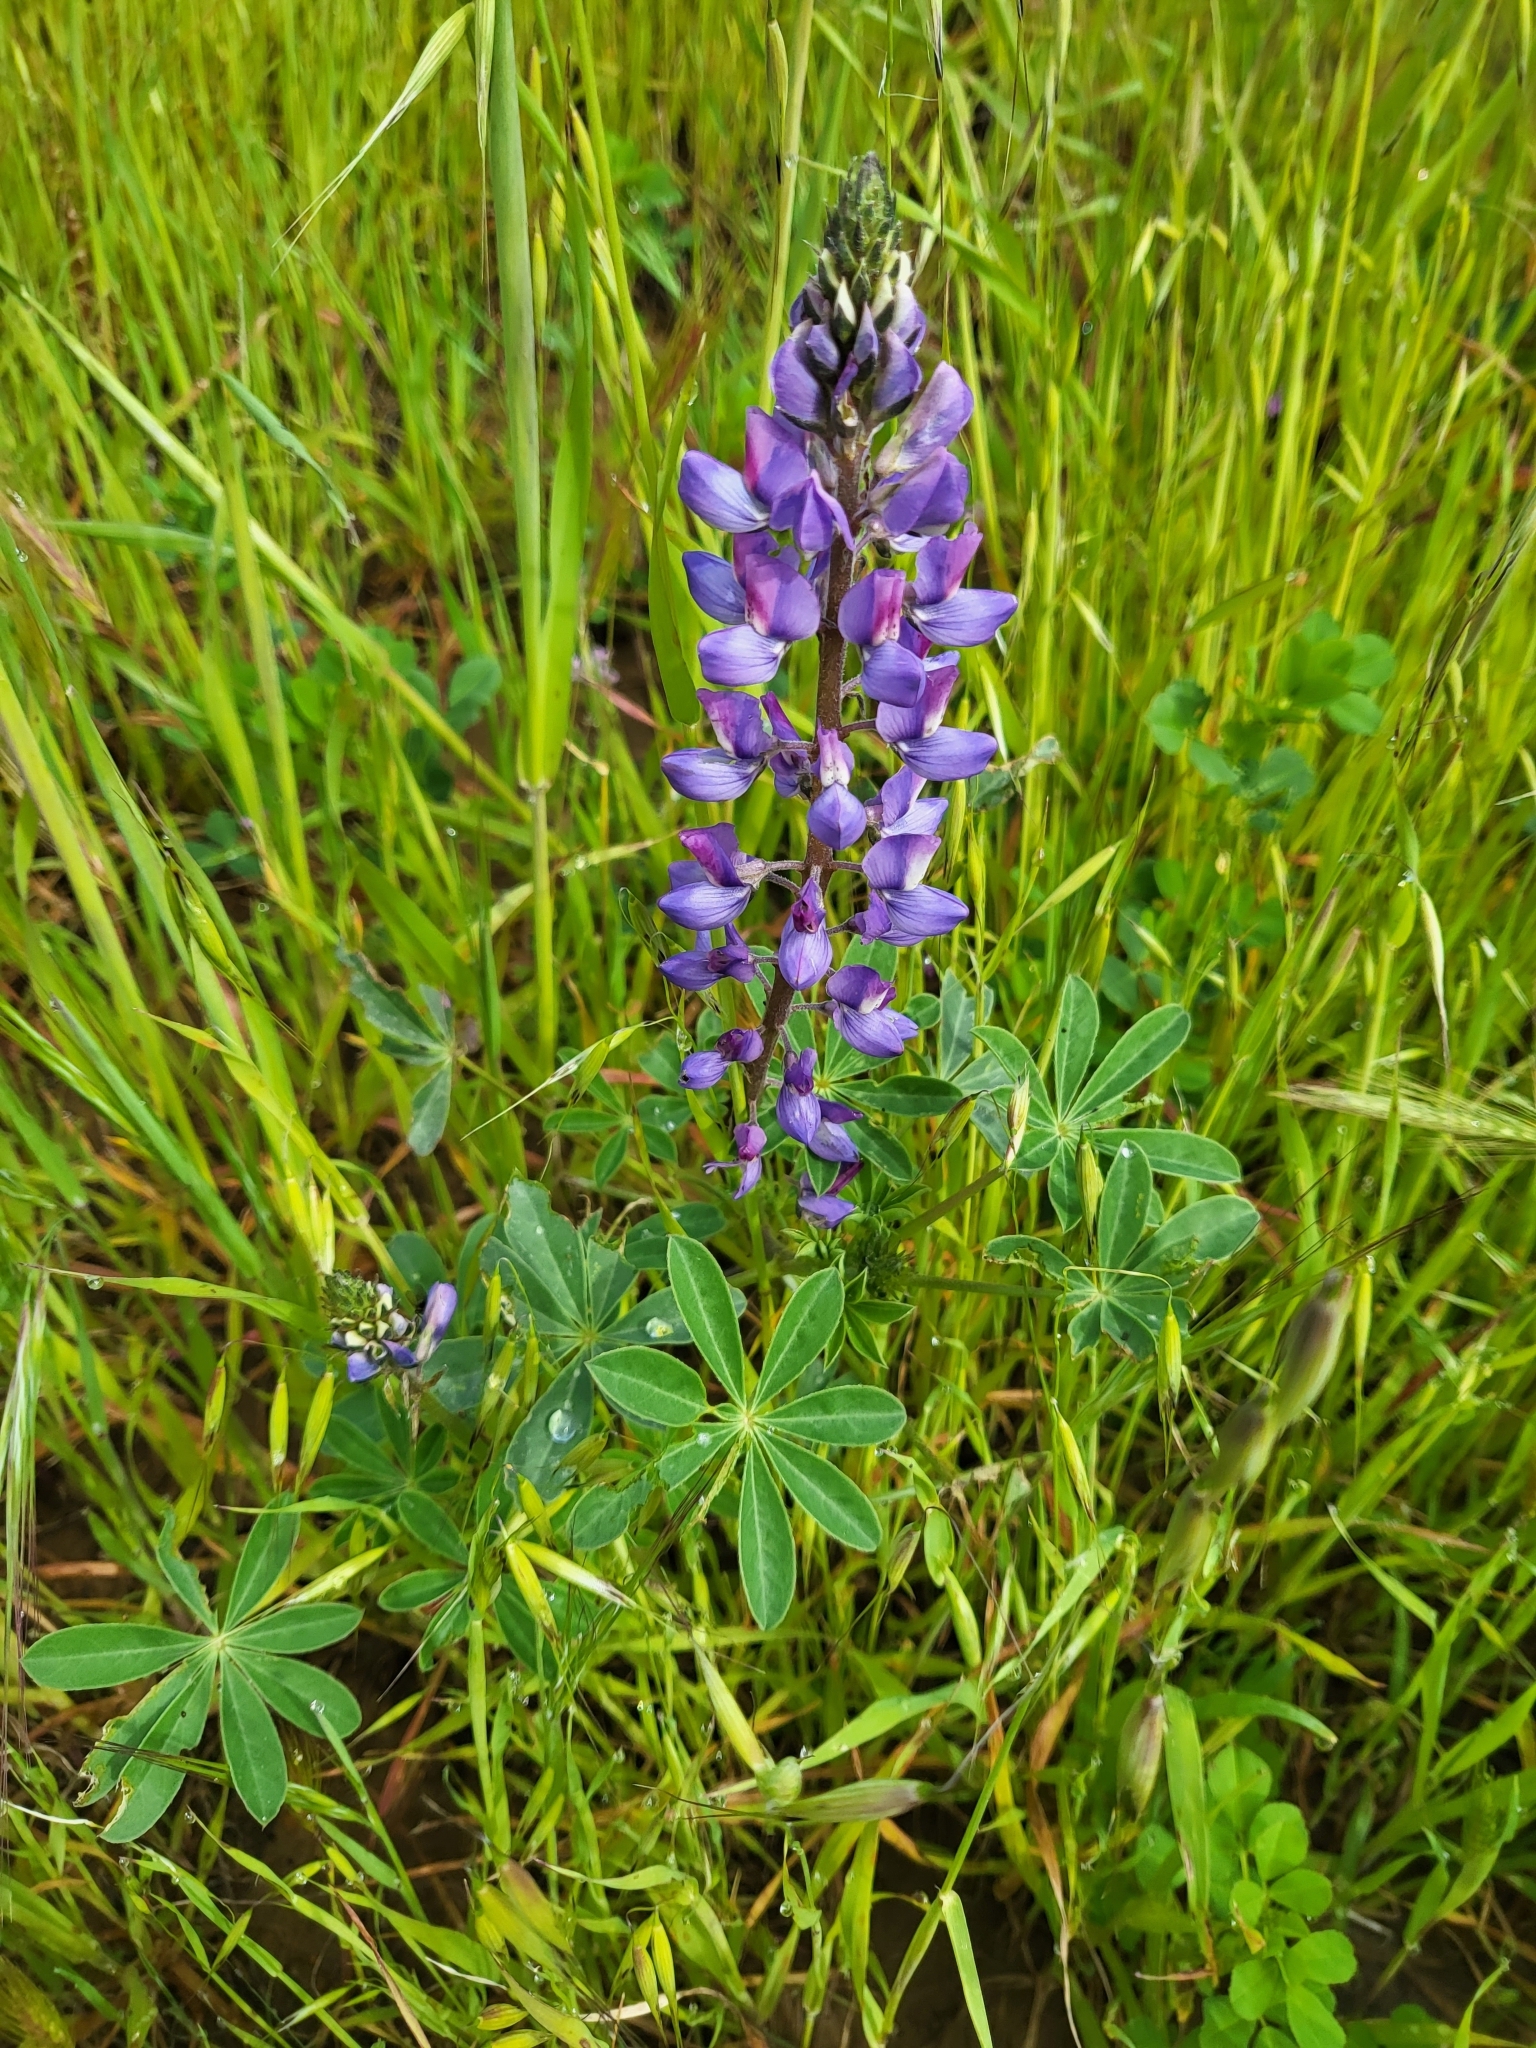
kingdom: Plantae
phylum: Tracheophyta
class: Magnoliopsida
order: Fabales
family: Fabaceae
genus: Lupinus
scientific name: Lupinus succulentus
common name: Arroyo lupine
